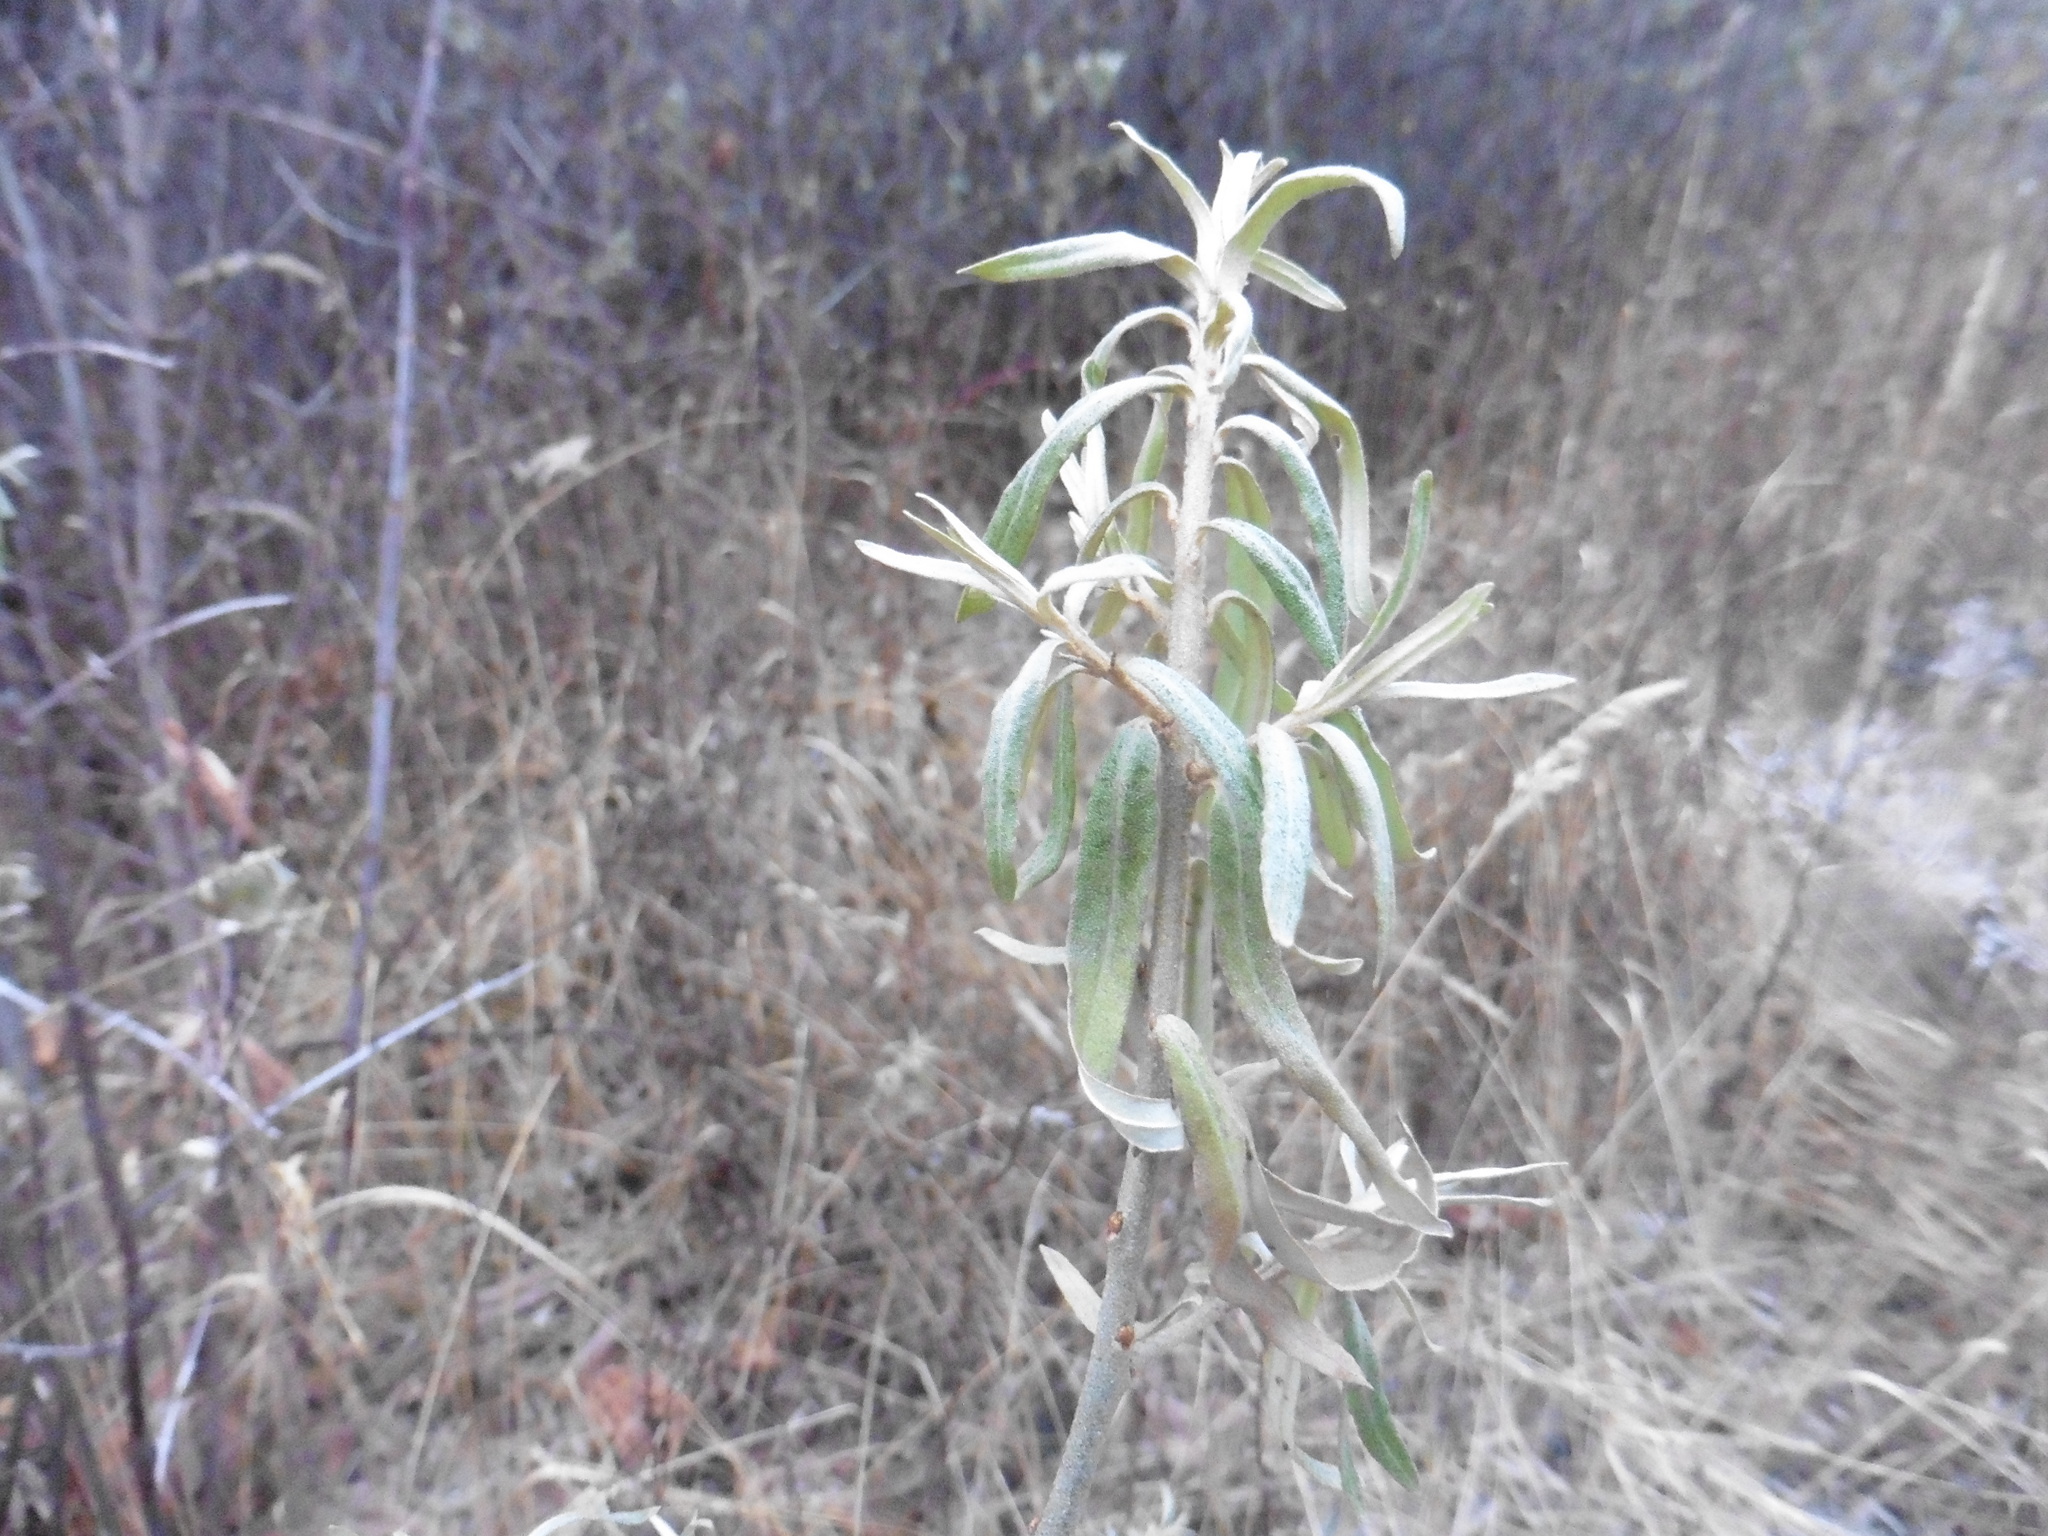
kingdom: Plantae
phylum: Tracheophyta
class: Magnoliopsida
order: Rosales
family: Elaeagnaceae
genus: Hippophae
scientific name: Hippophae rhamnoides
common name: Sea-buckthorn
